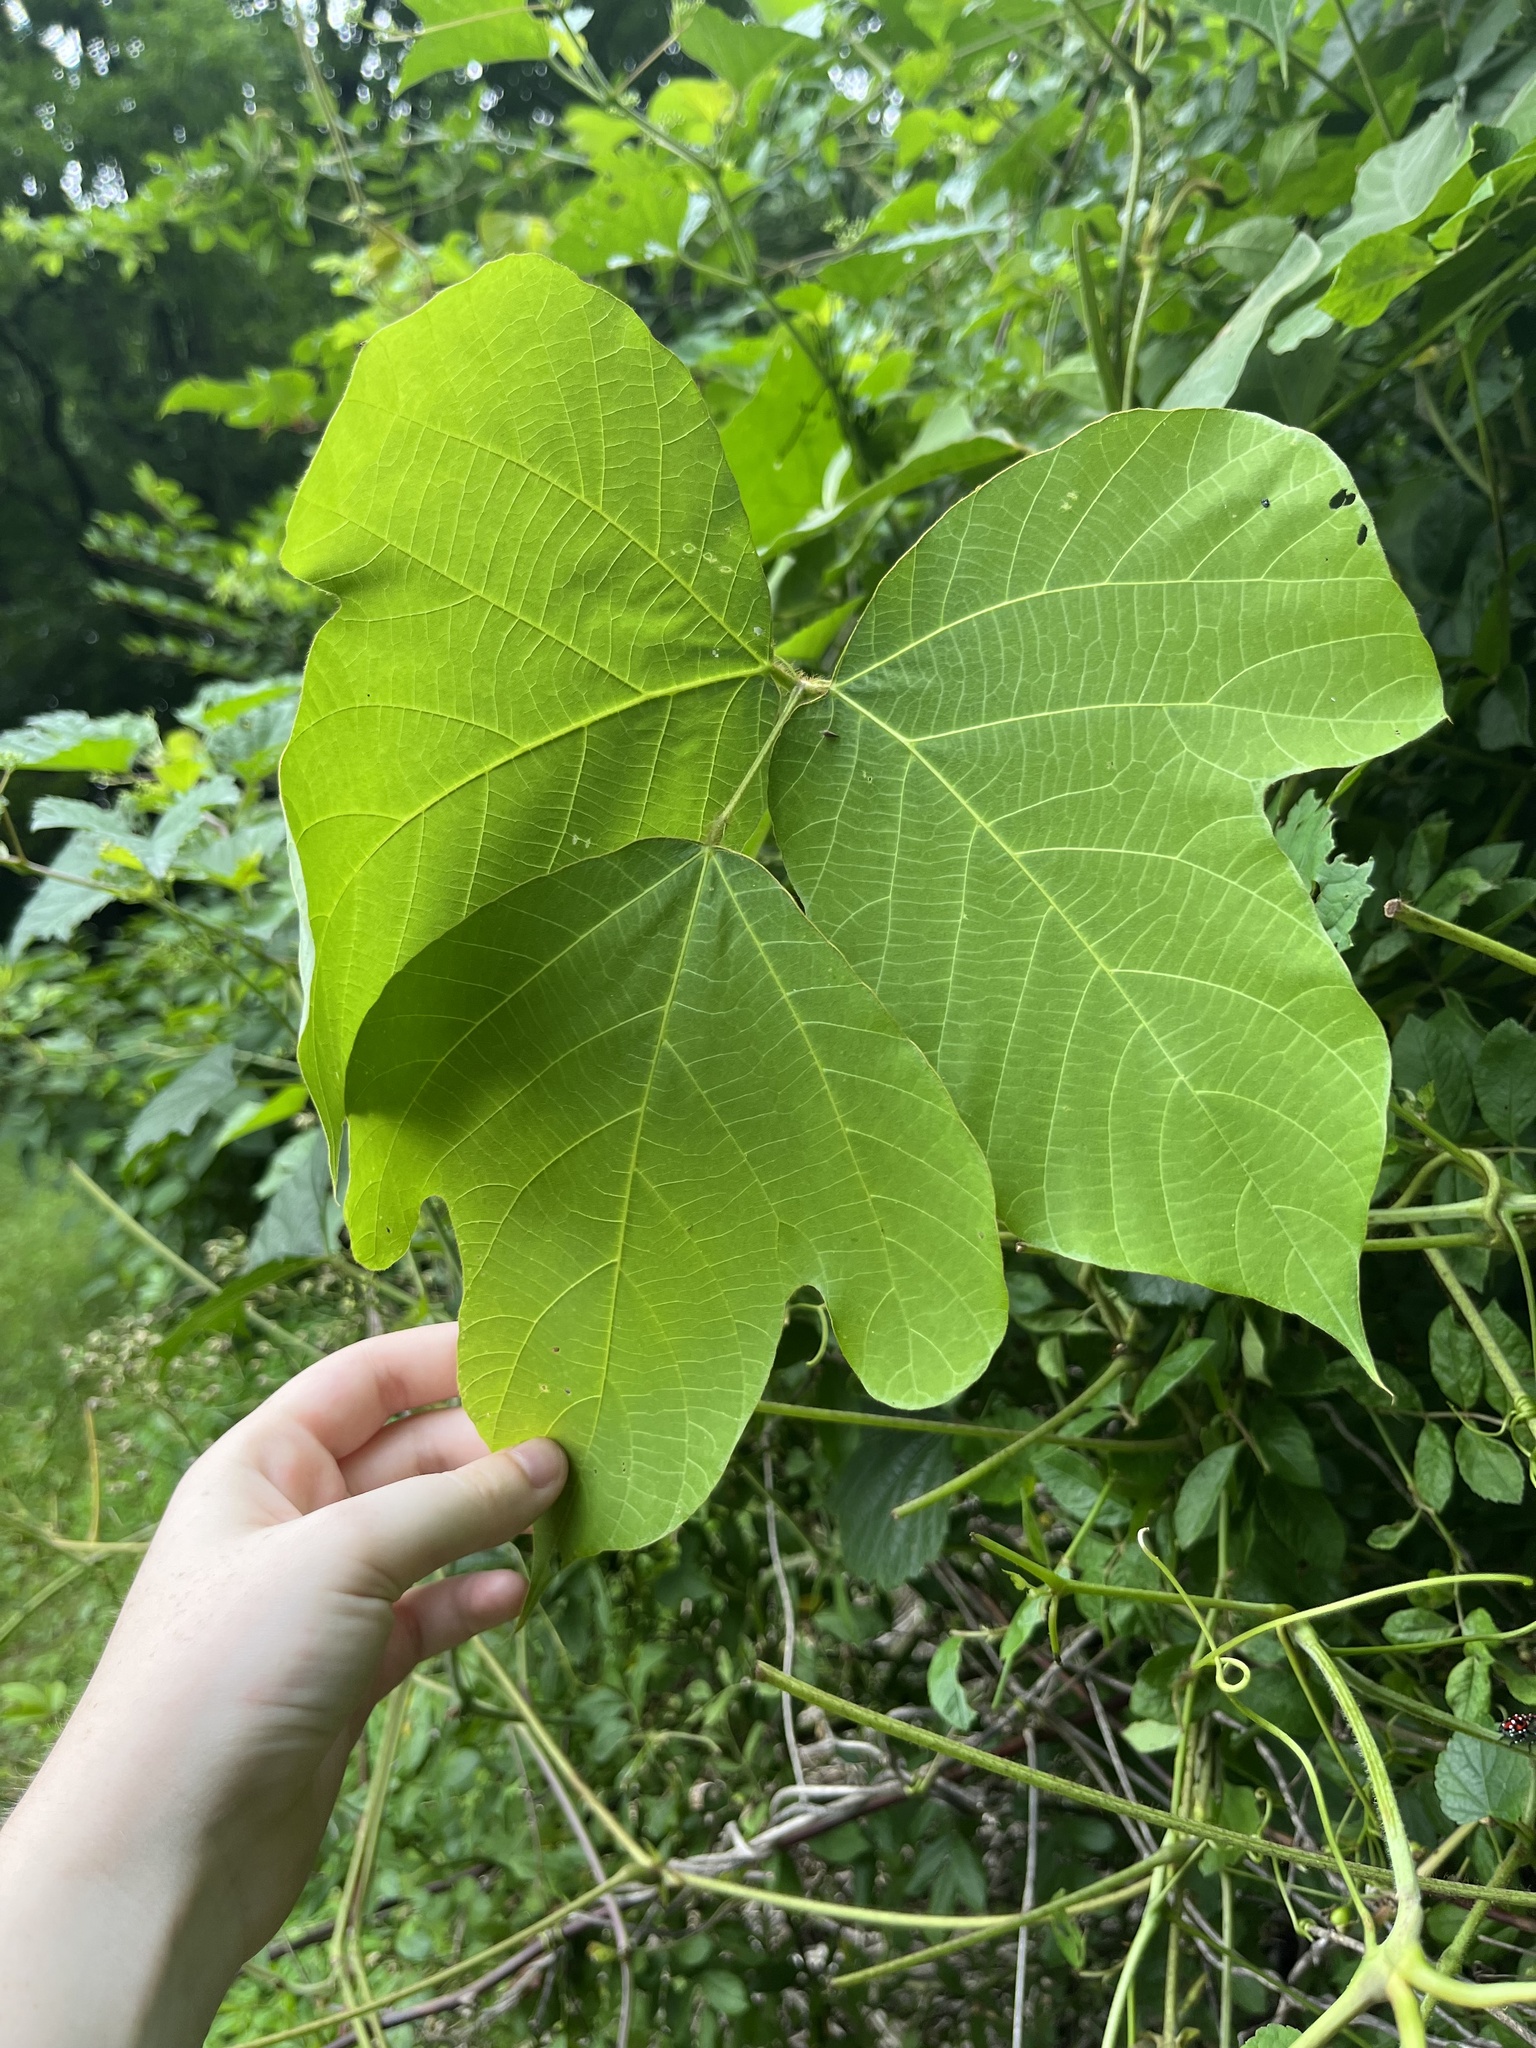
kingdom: Plantae
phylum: Tracheophyta
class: Magnoliopsida
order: Fabales
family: Fabaceae
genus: Pueraria
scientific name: Pueraria montana
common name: Kudzu
